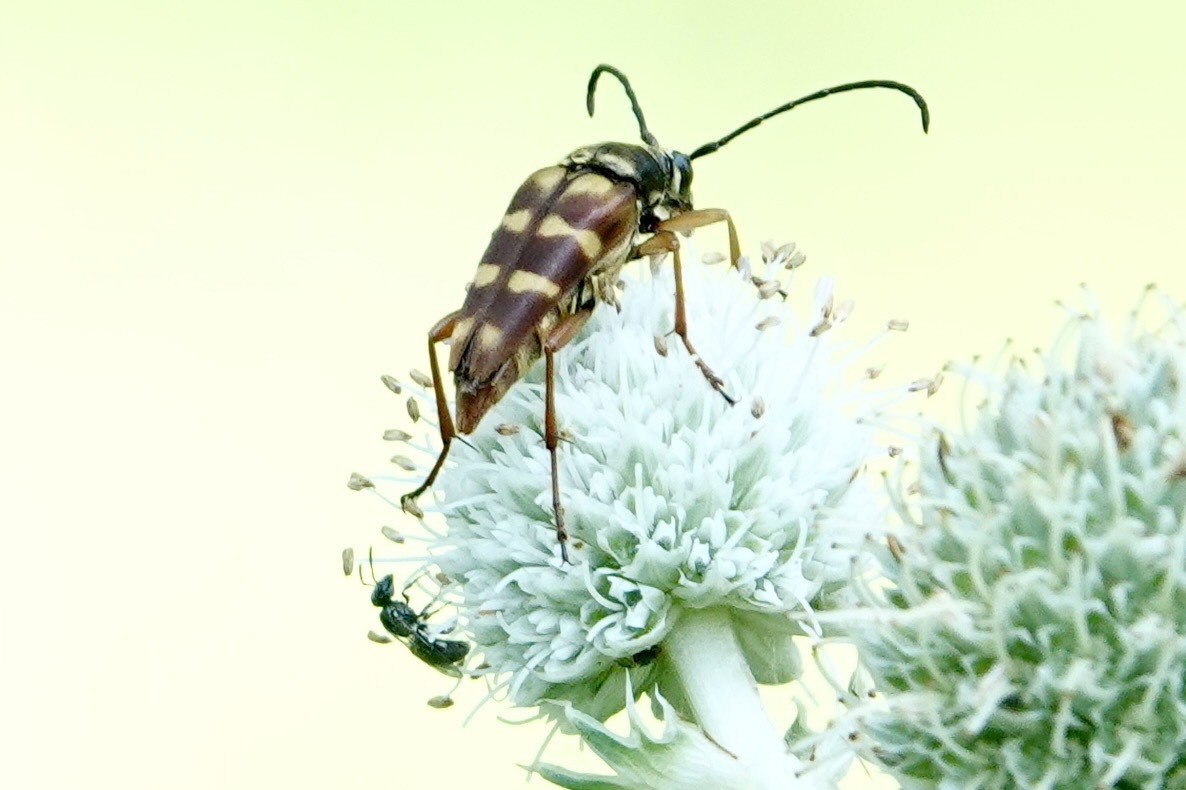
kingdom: Animalia
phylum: Arthropoda
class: Insecta
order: Coleoptera
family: Cerambycidae
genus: Typocerus
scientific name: Typocerus velutinus
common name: Banded longhorn beetle
